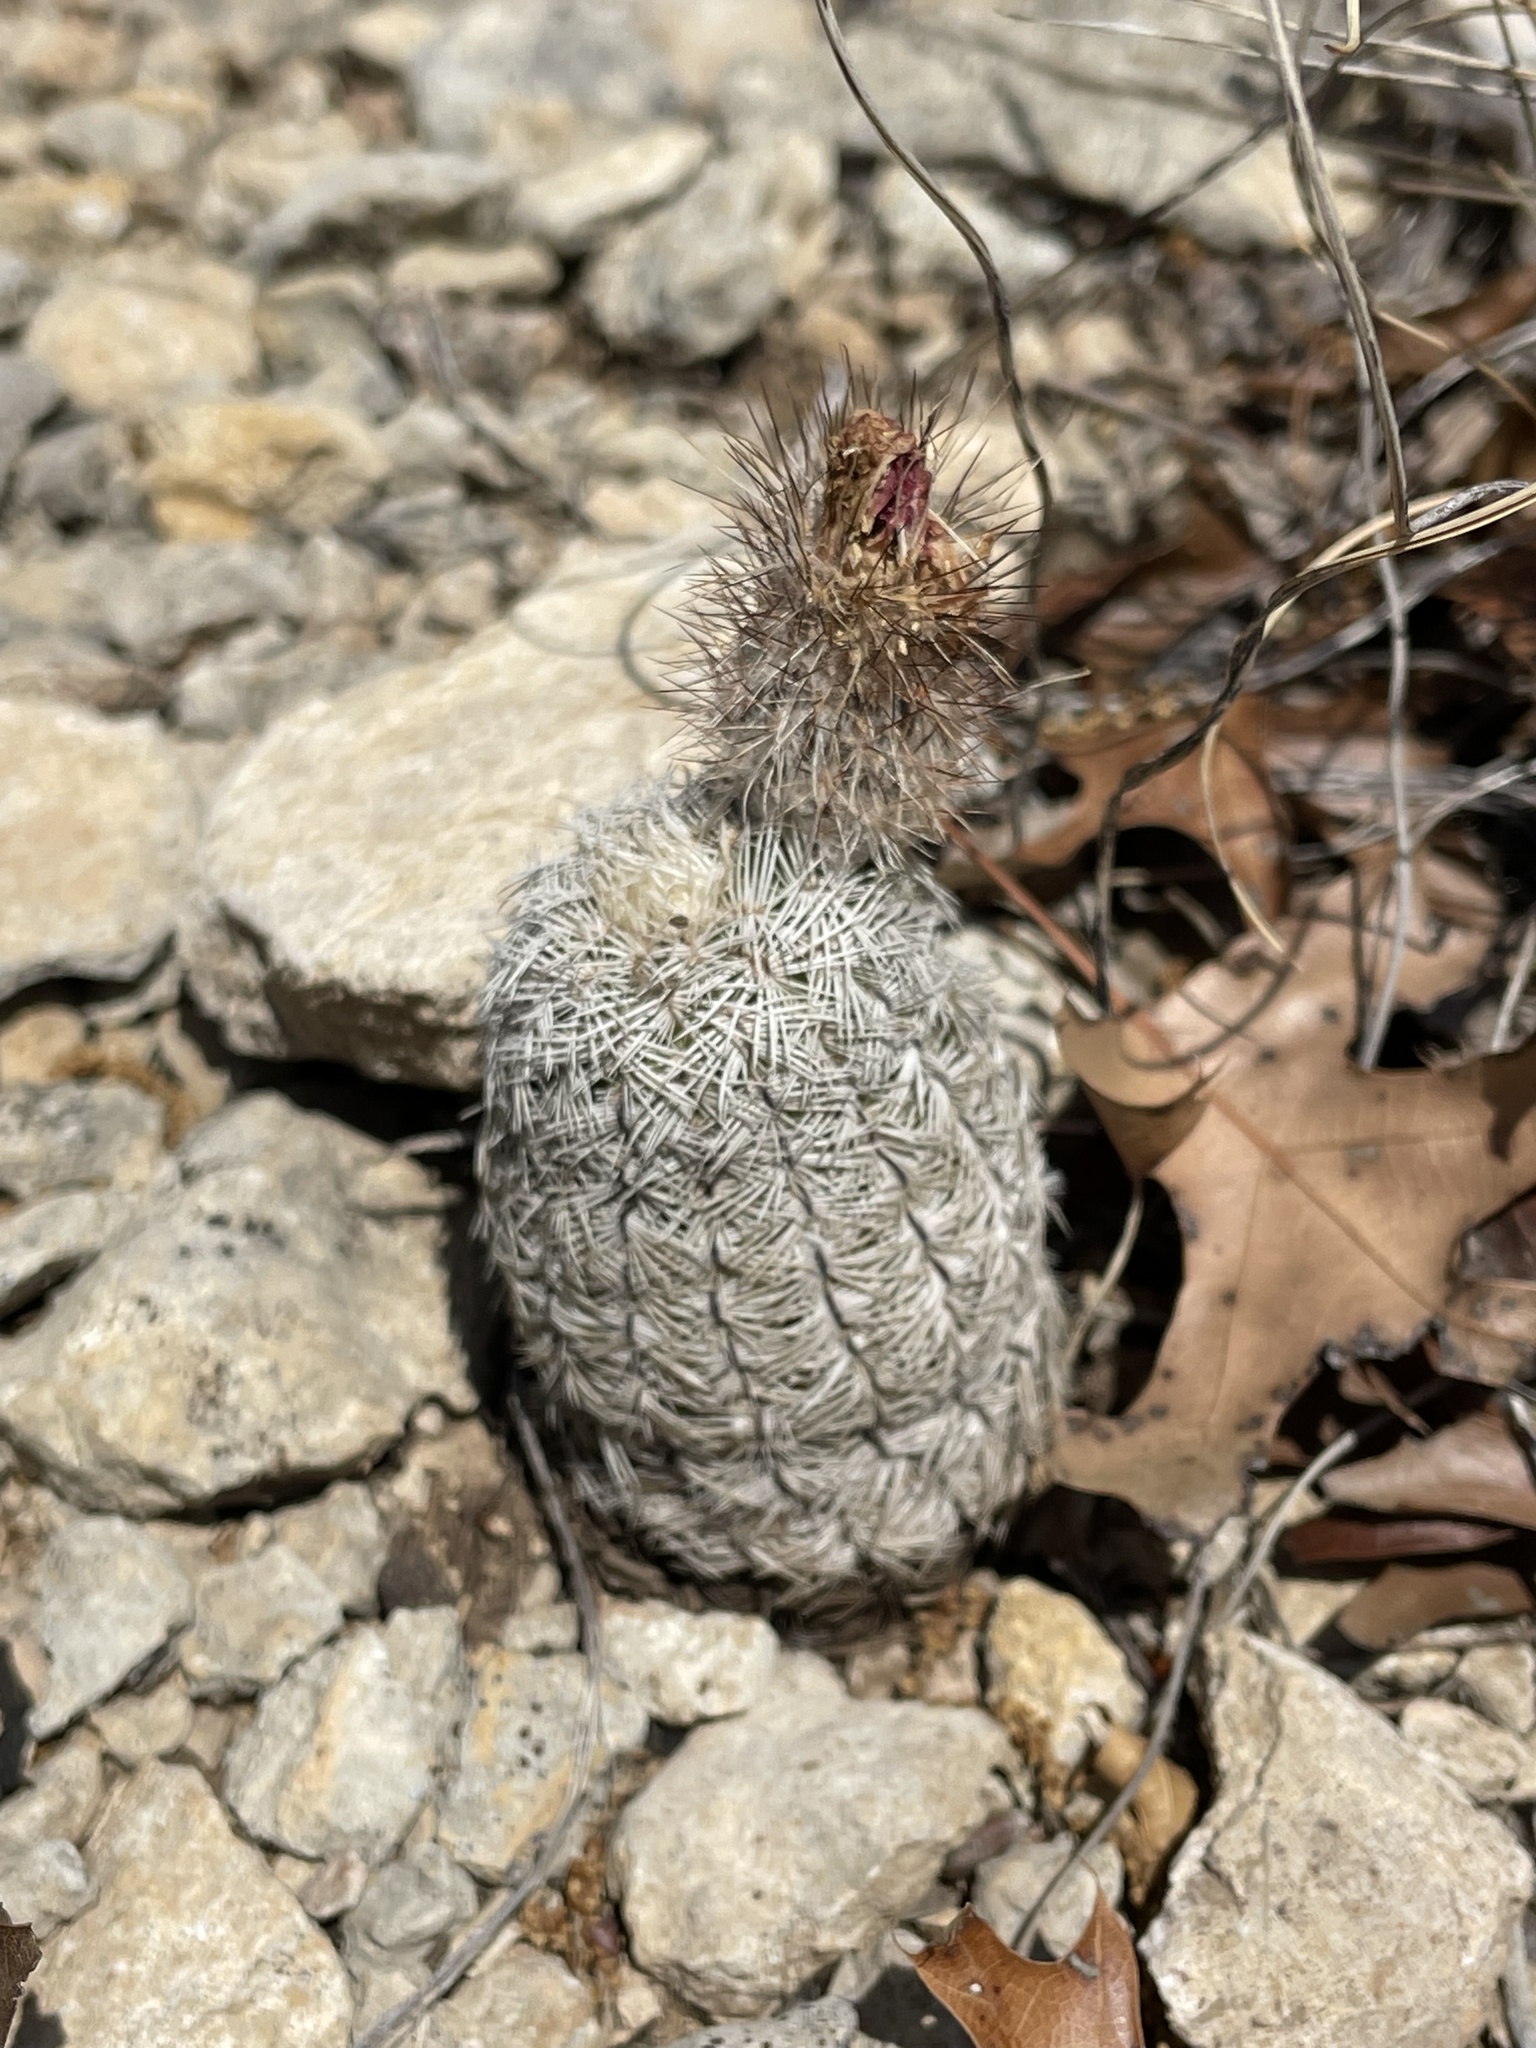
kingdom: Plantae
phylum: Tracheophyta
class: Magnoliopsida
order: Caryophyllales
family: Cactaceae
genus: Echinocereus
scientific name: Echinocereus reichenbachii
